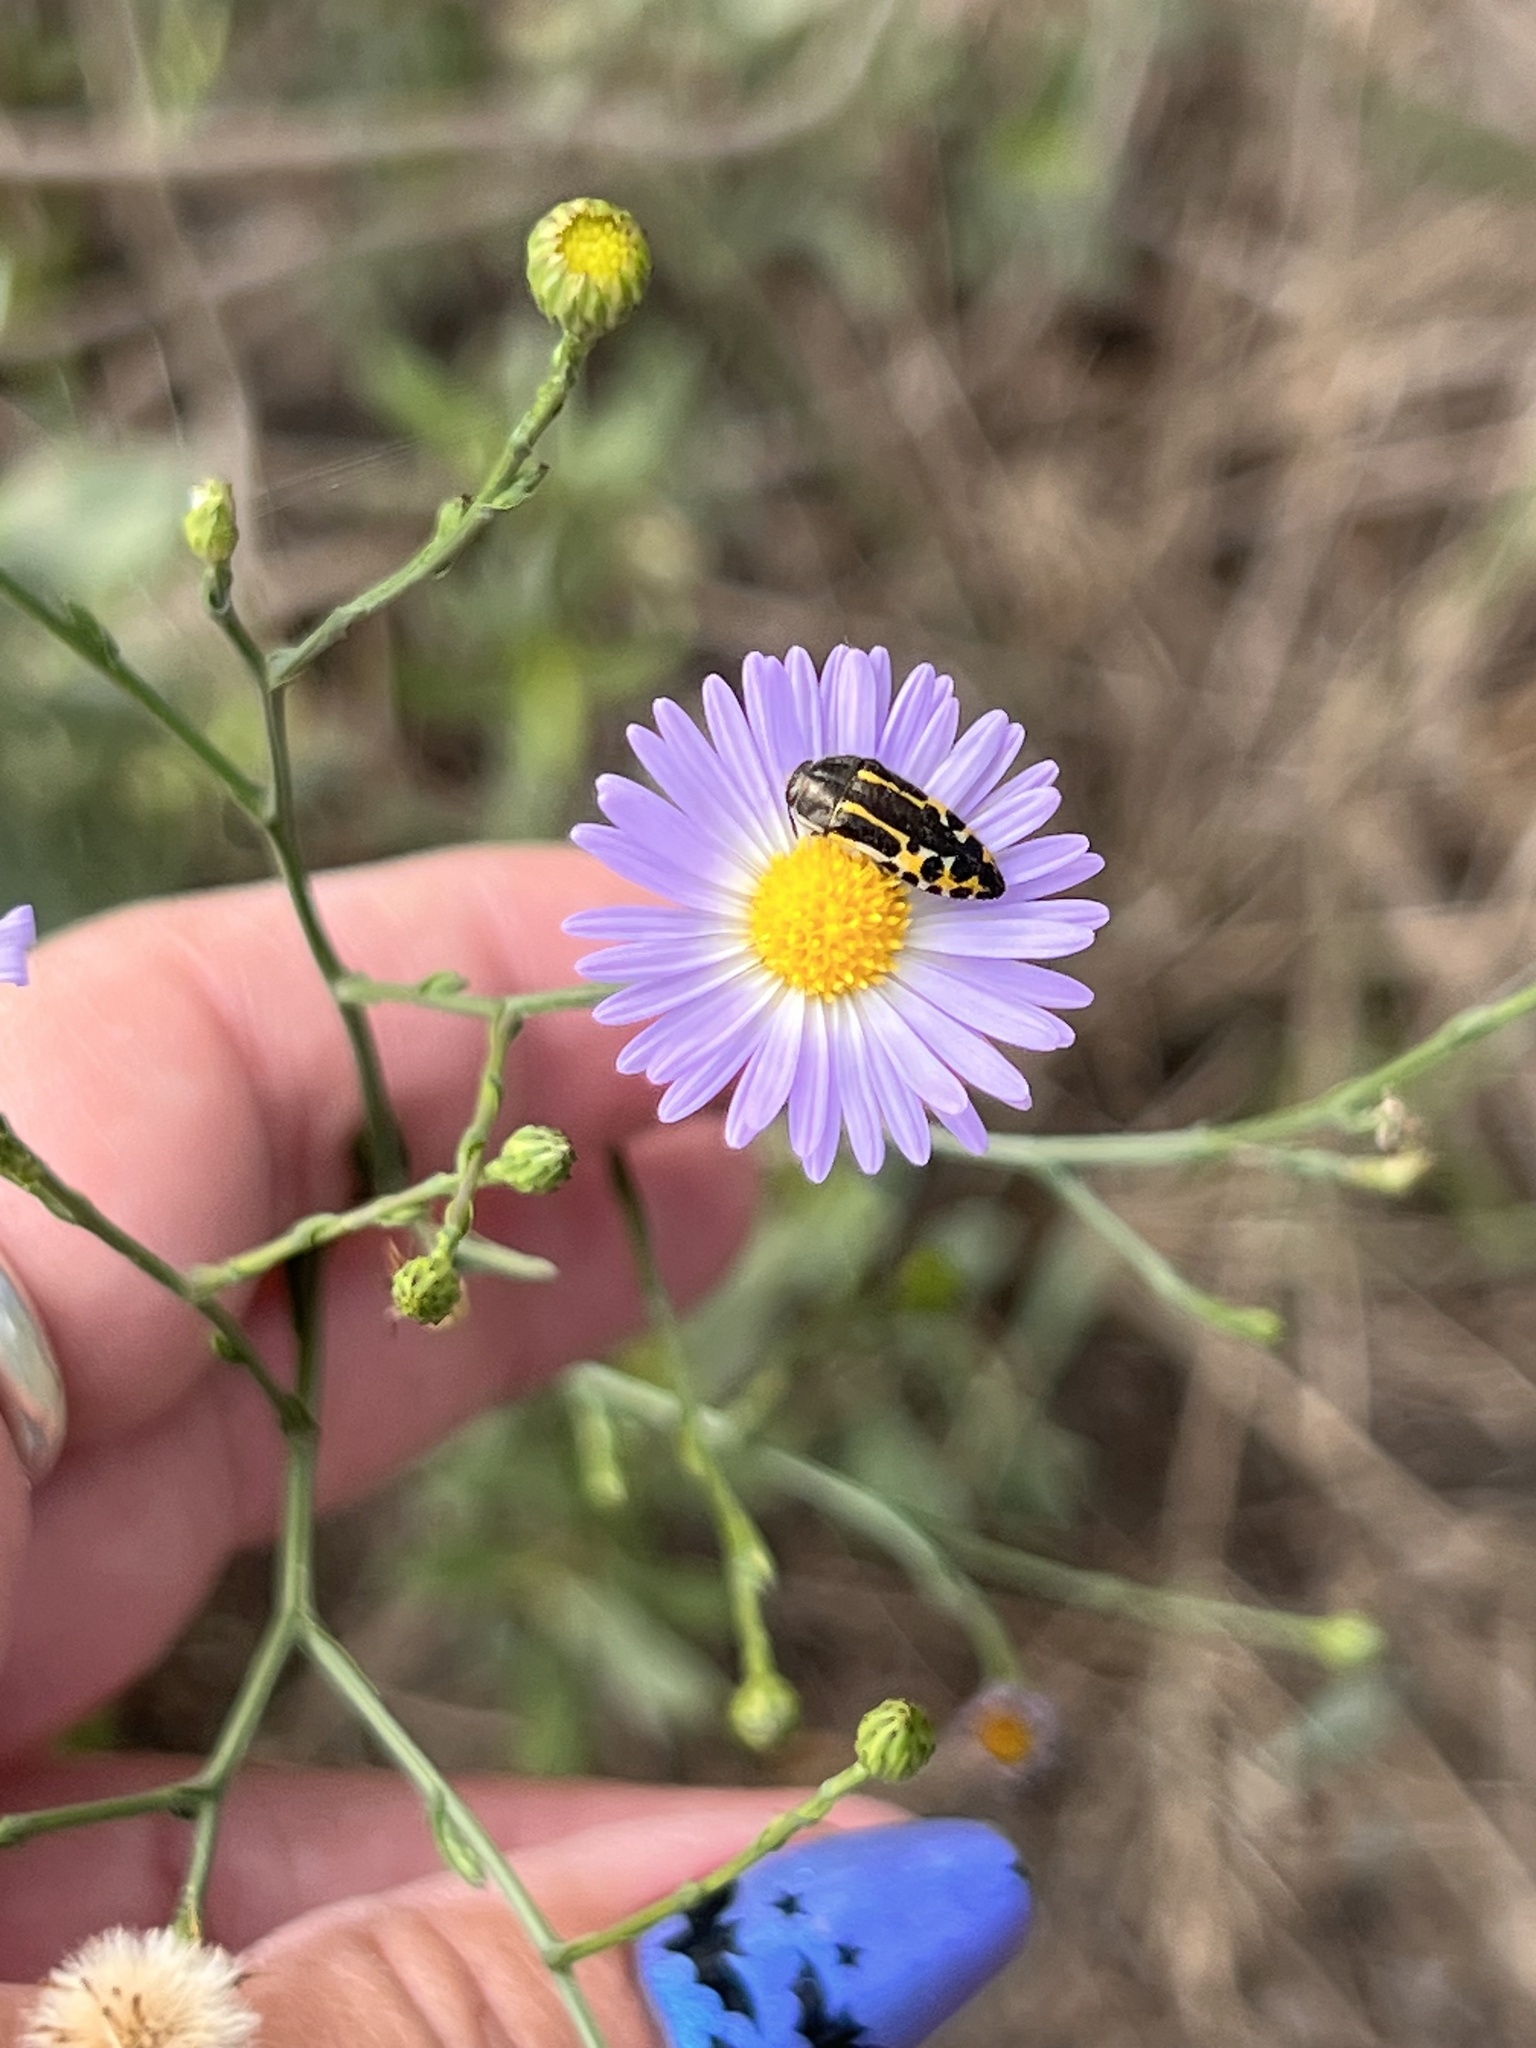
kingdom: Animalia
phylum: Arthropoda
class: Insecta
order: Coleoptera
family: Buprestidae
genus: Acmaeodera
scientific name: Acmaeodera scalaris
